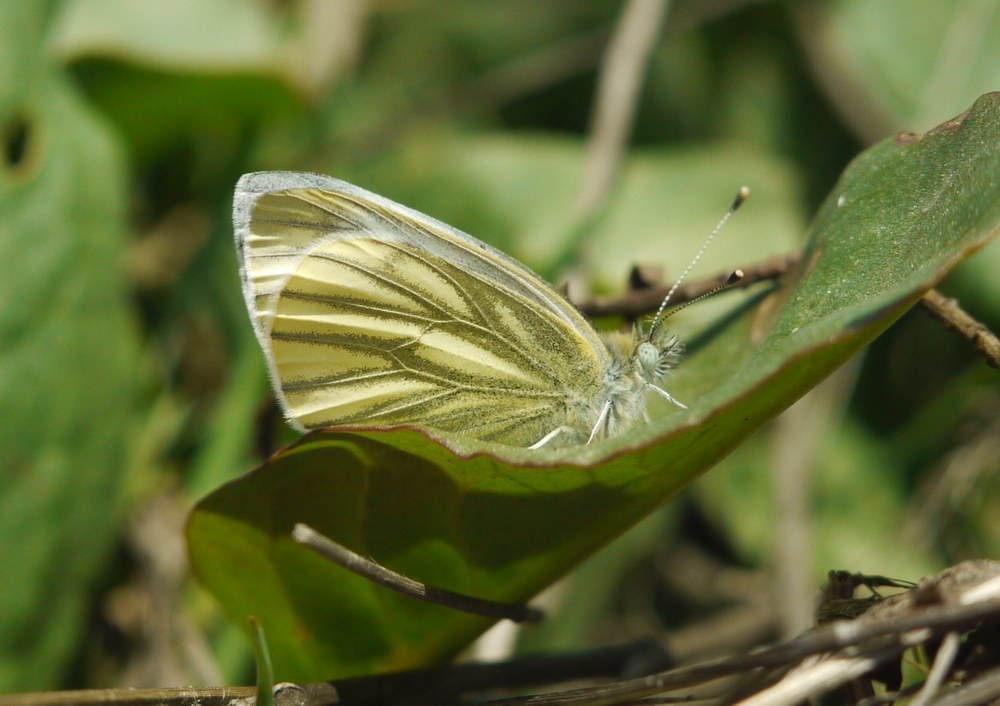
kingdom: Animalia
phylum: Arthropoda
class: Insecta
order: Lepidoptera
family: Pieridae
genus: Pieris
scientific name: Pieris napi
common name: Green-veined white
